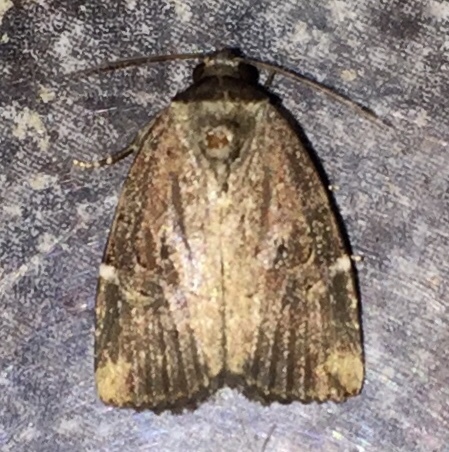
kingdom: Animalia
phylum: Arthropoda
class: Insecta
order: Lepidoptera
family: Noctuidae
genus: Elaphria
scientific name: Elaphria versicolor
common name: Fir harlequin
